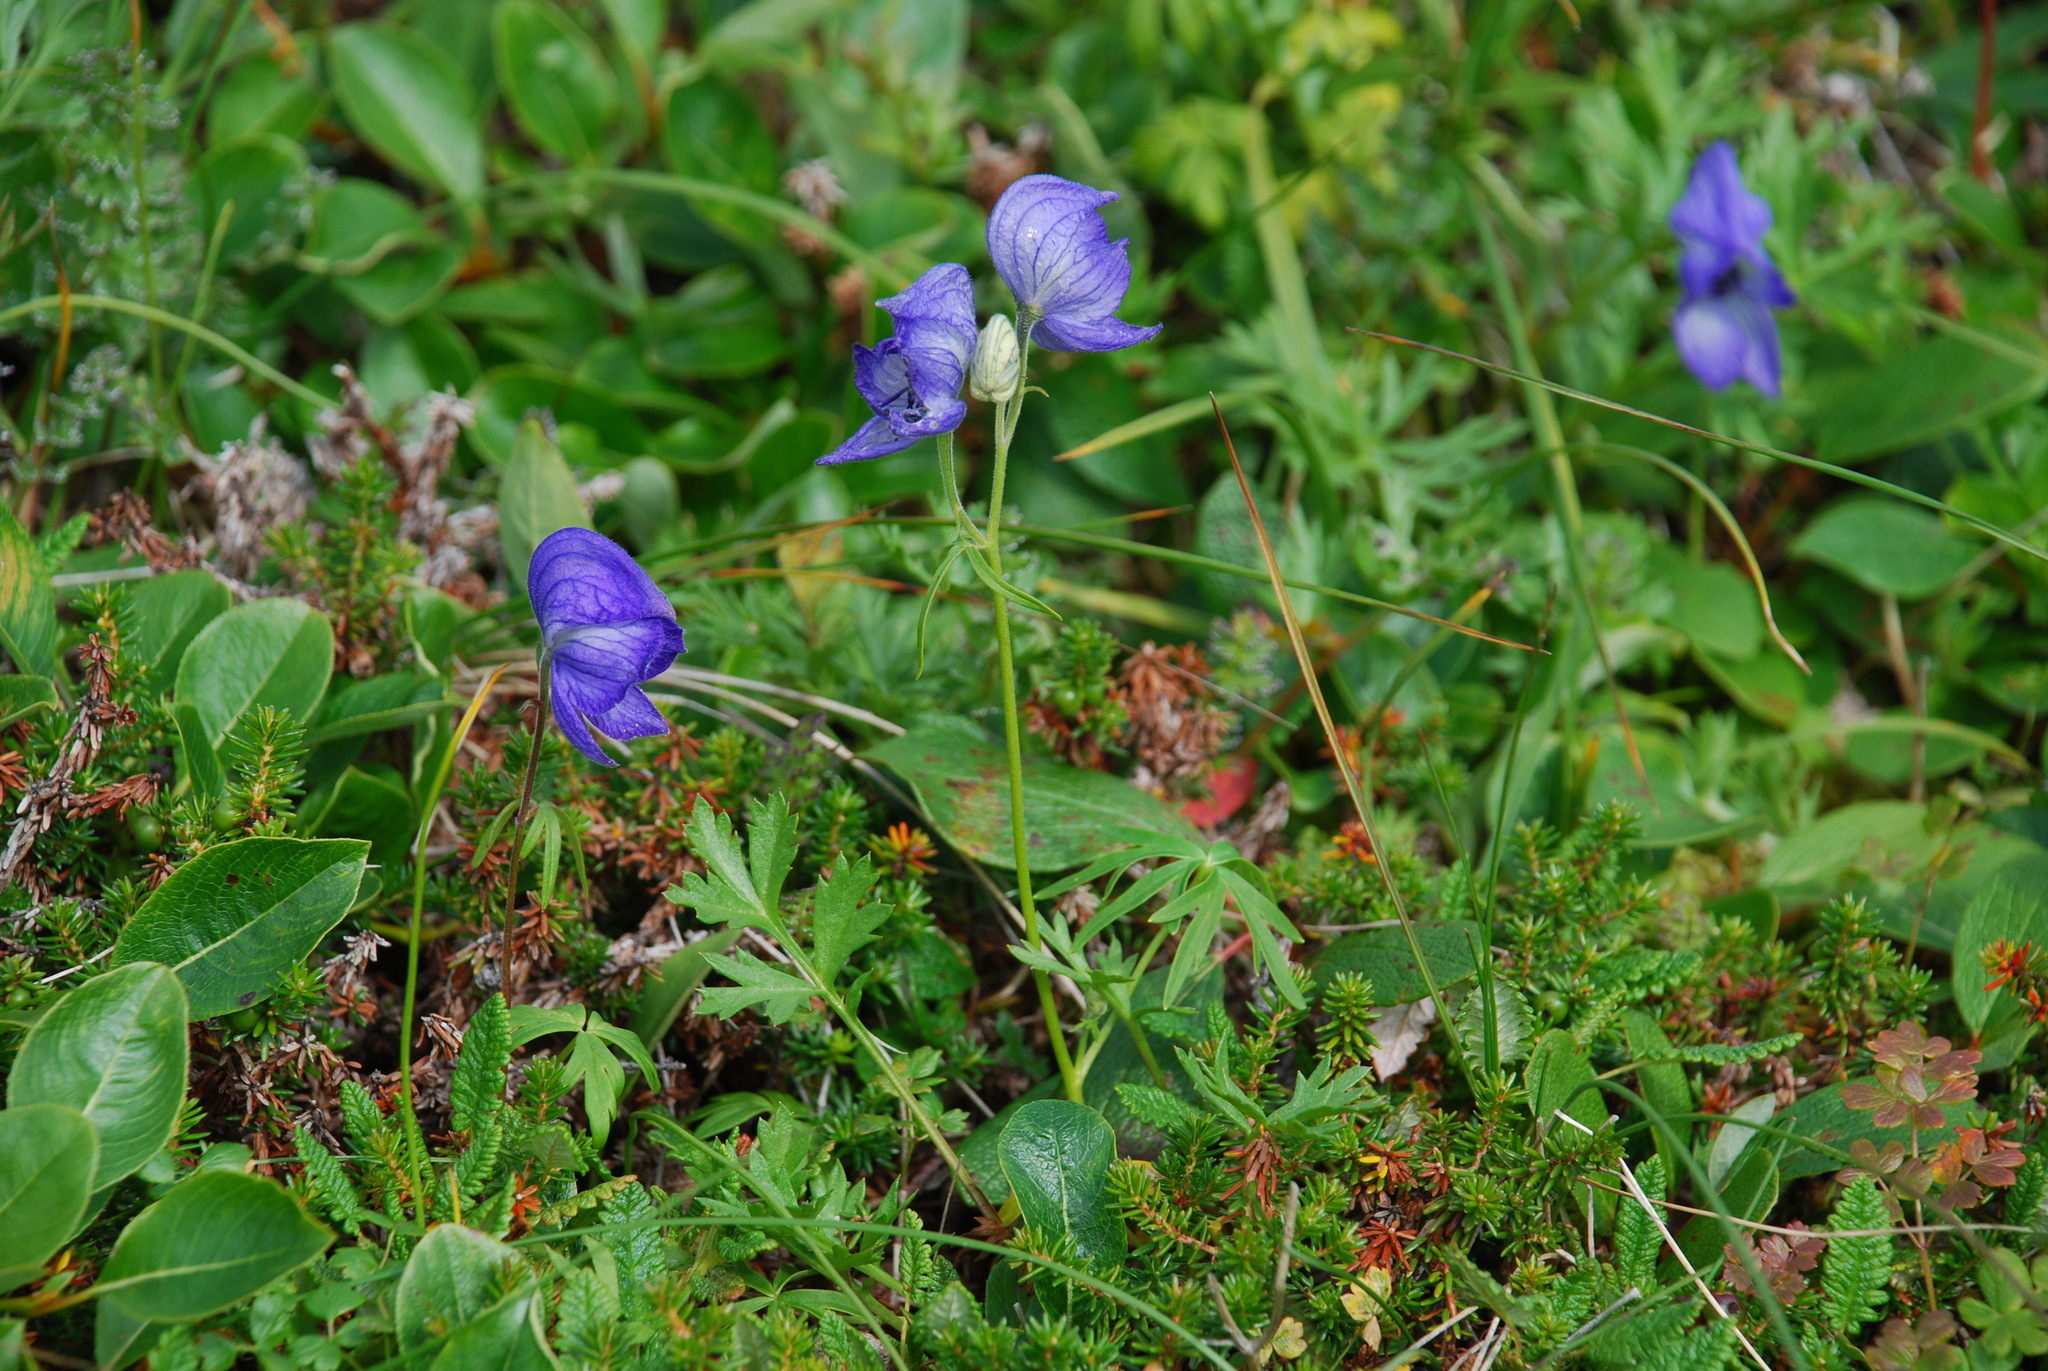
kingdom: Plantae
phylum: Tracheophyta
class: Magnoliopsida
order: Ranunculales
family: Ranunculaceae
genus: Aconitum
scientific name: Aconitum delphiniifolium
